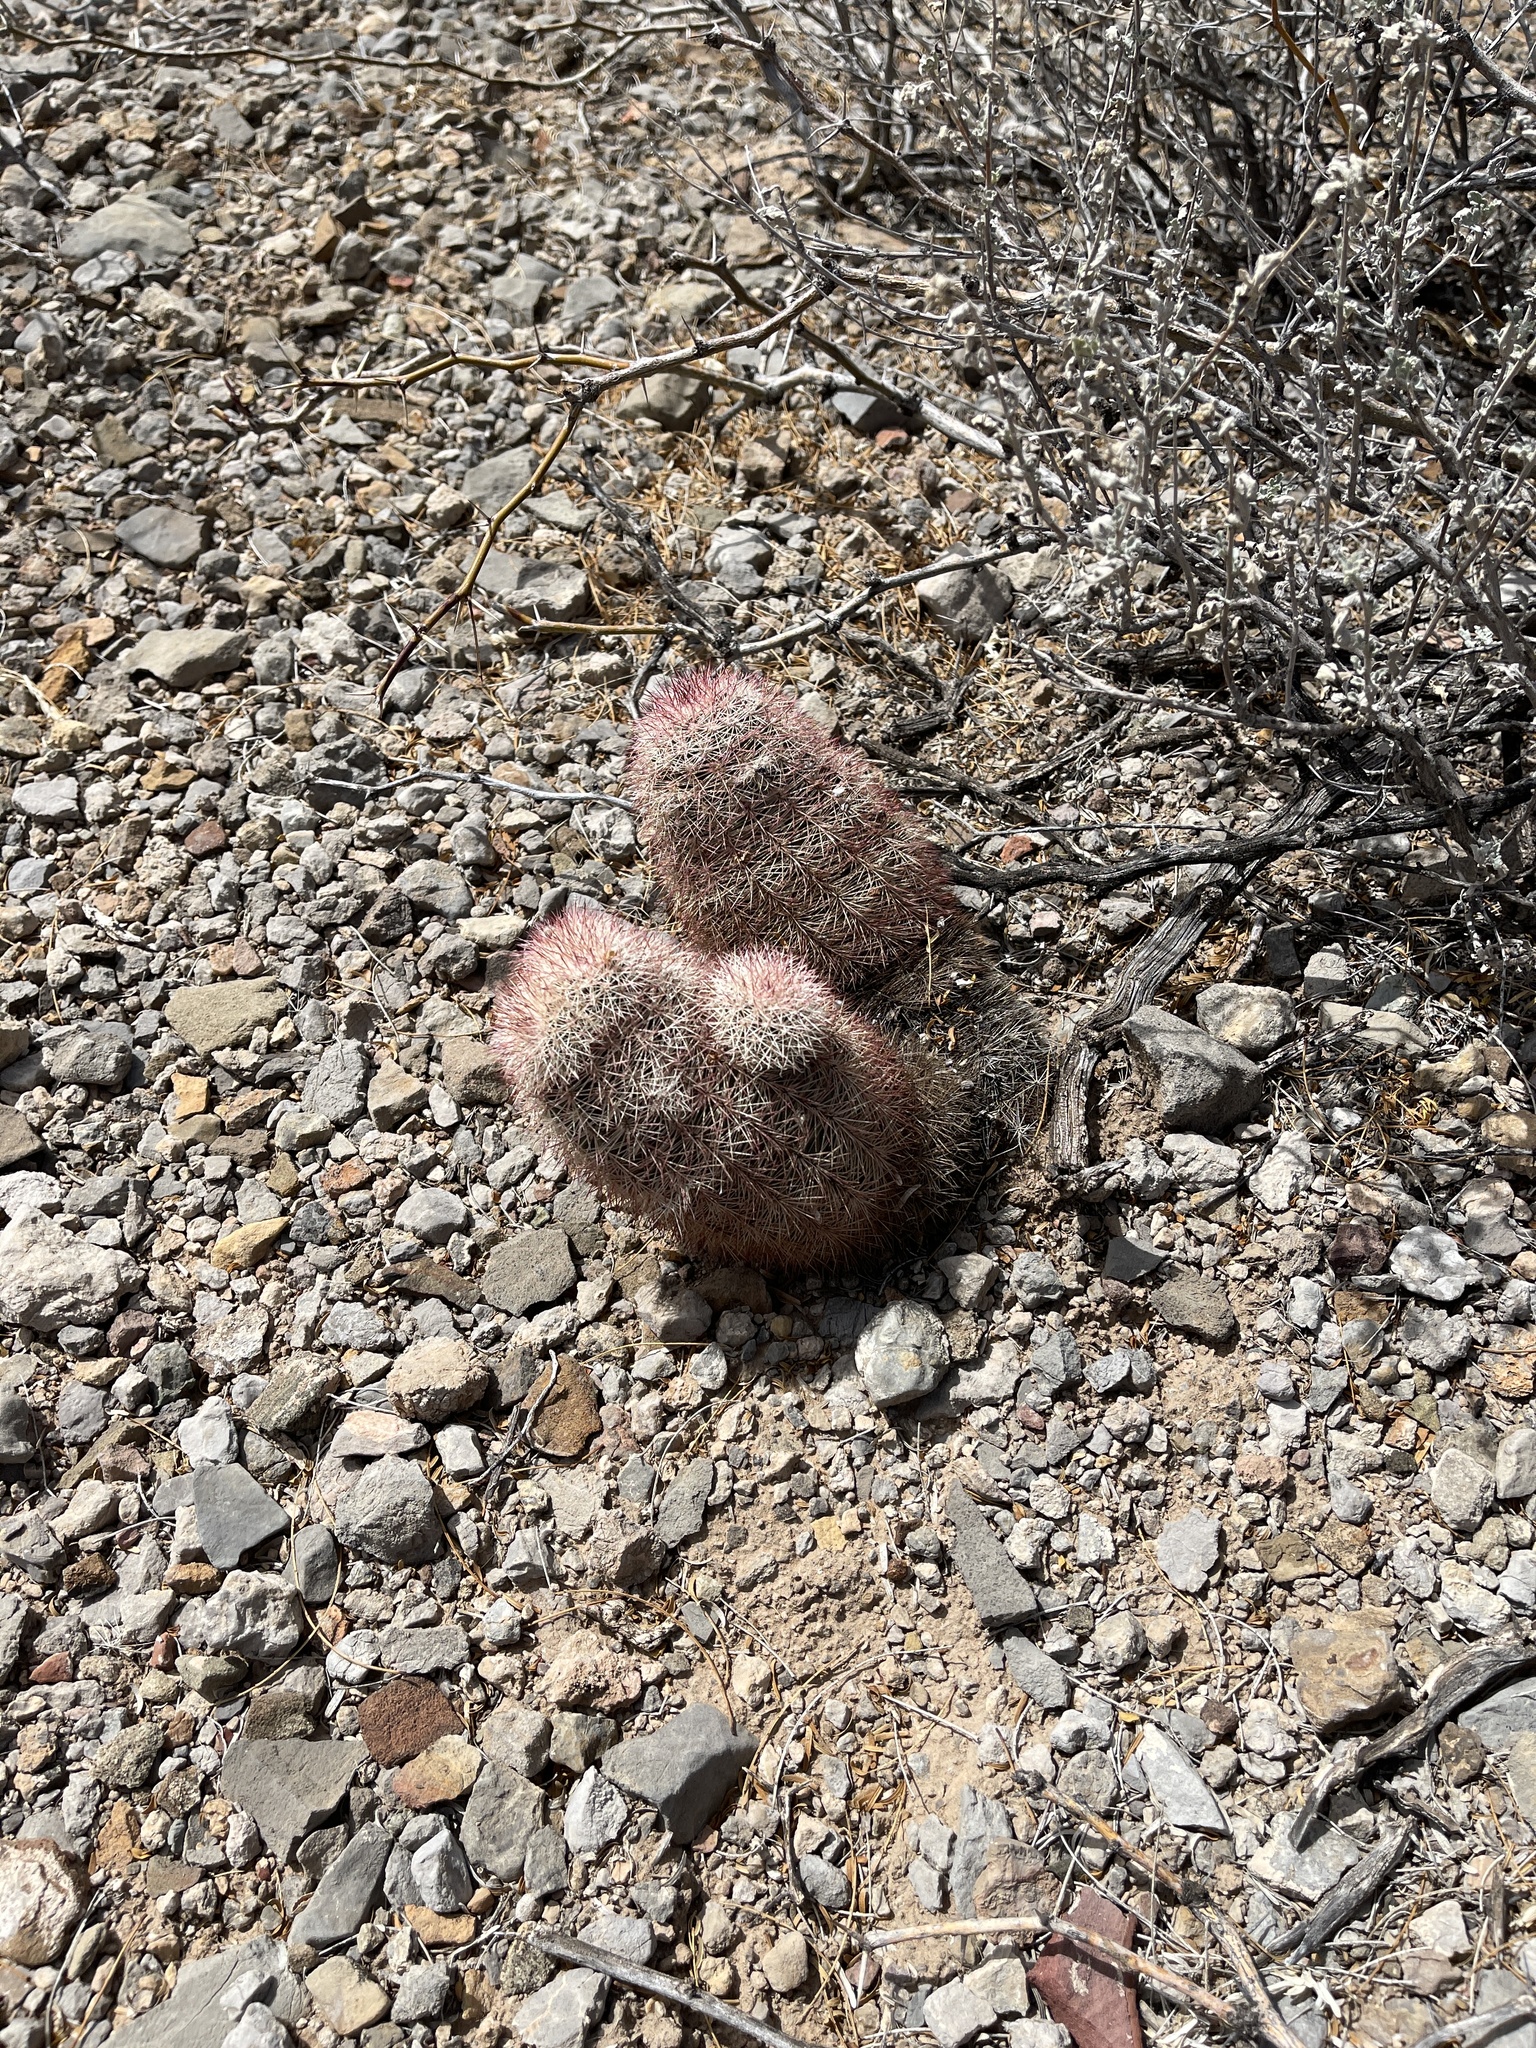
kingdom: Plantae
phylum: Tracheophyta
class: Magnoliopsida
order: Caryophyllales
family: Cactaceae
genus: Echinocereus
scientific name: Echinocereus dasyacanthus
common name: Spiny hedgehog cactus
